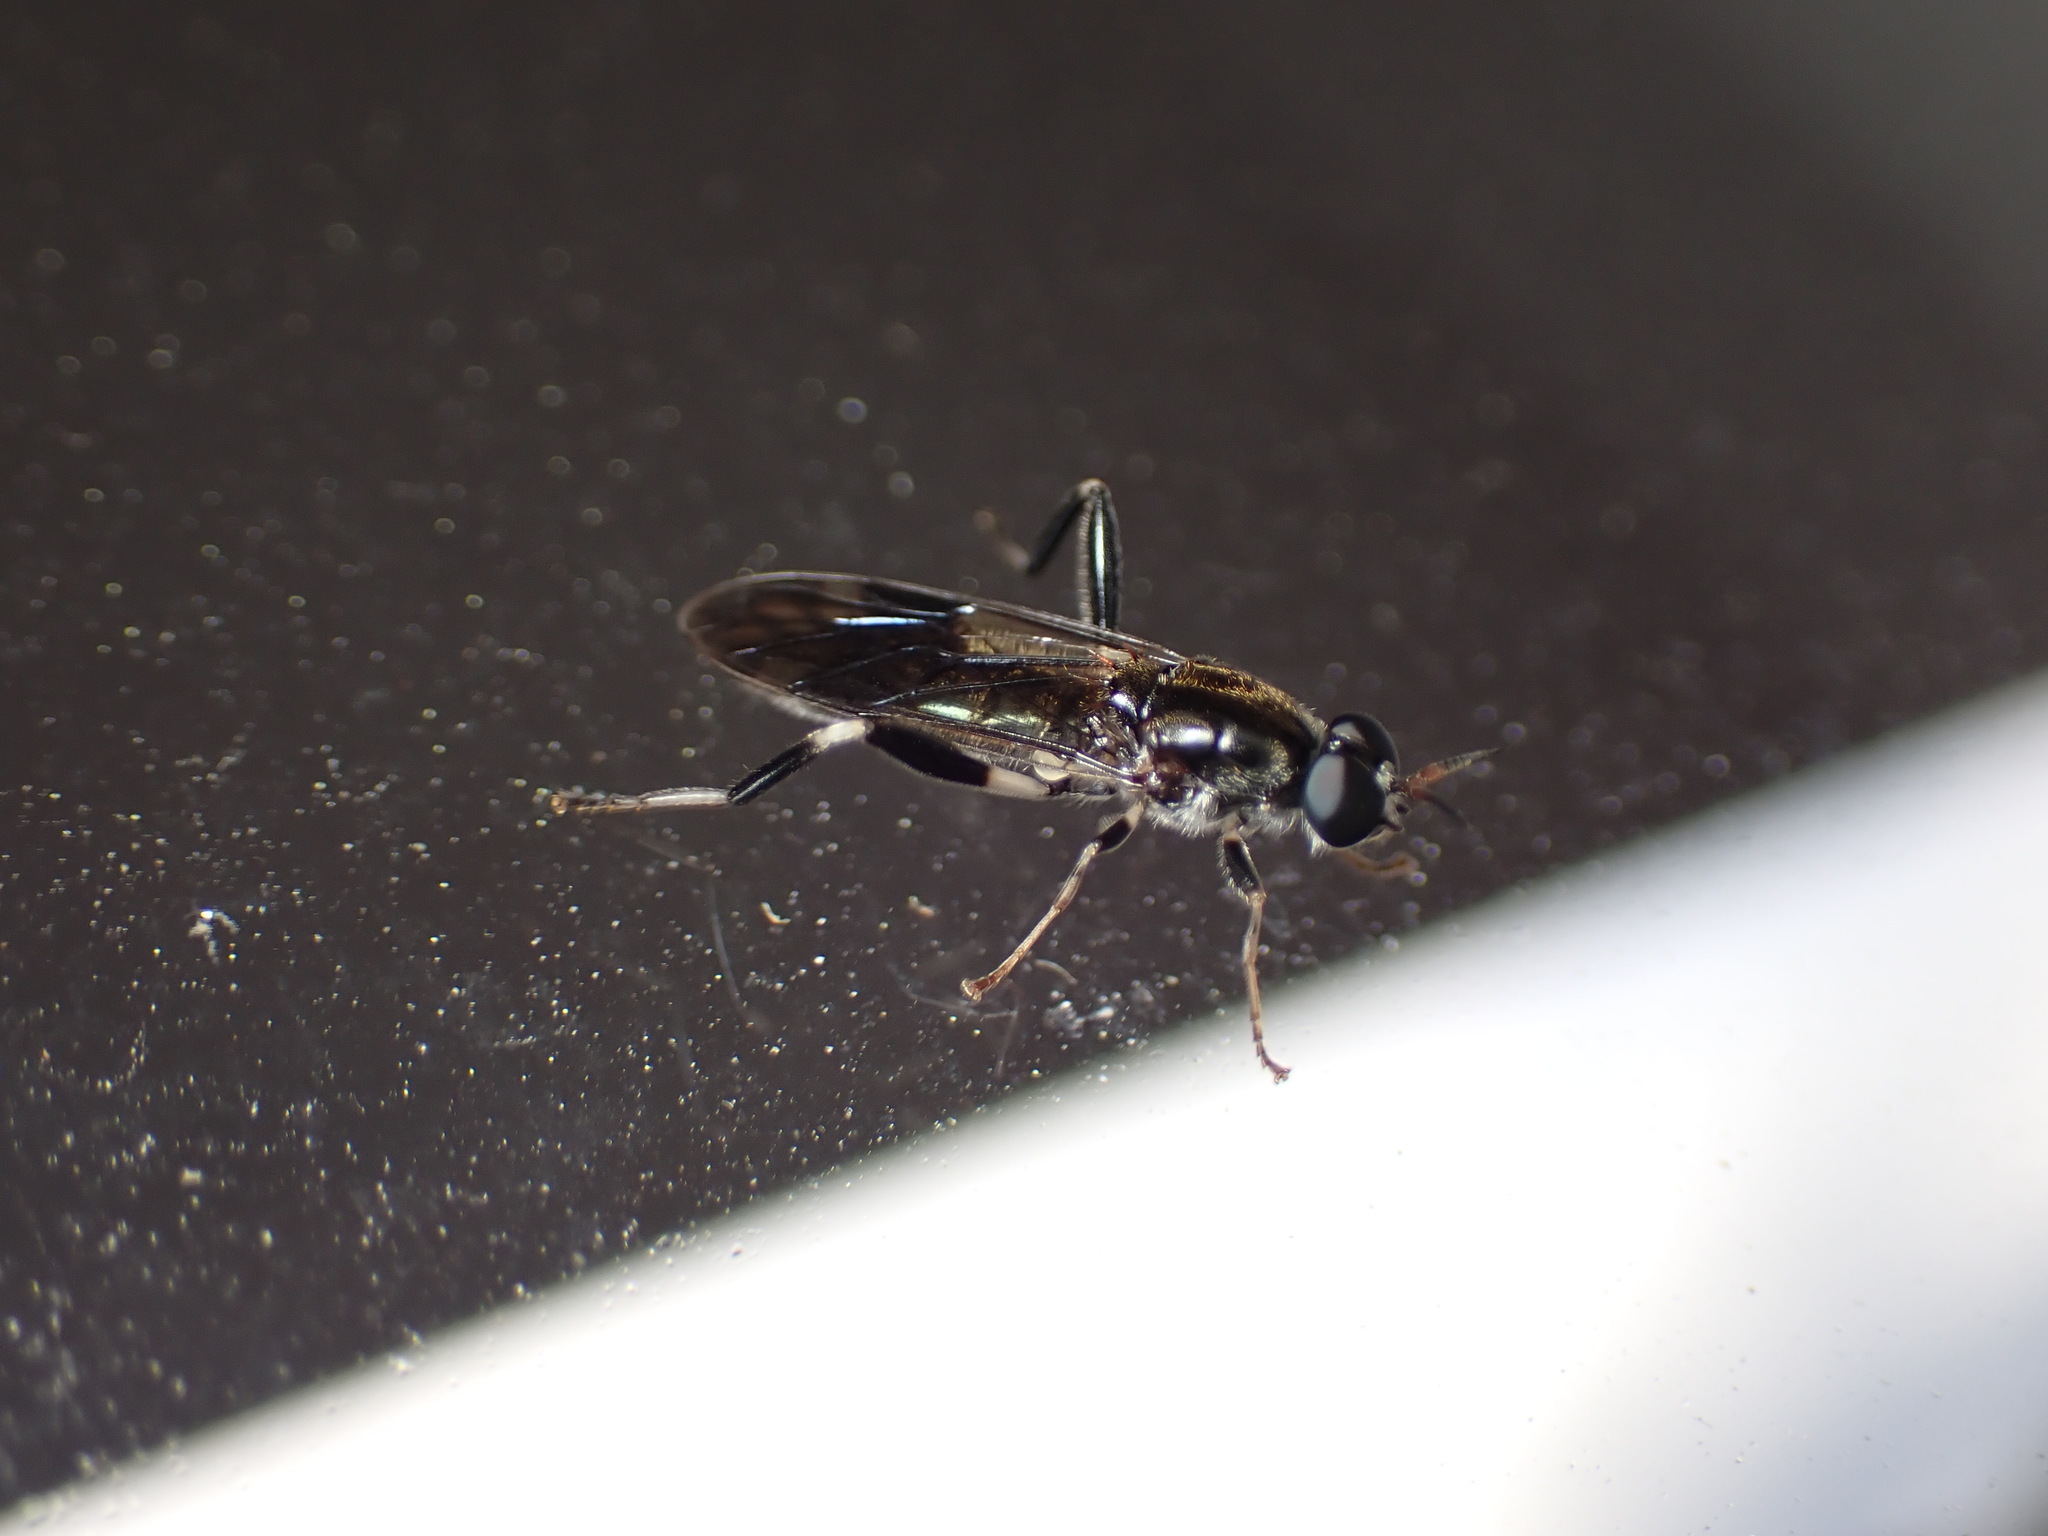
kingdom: Animalia
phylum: Arthropoda
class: Insecta
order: Diptera
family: Stratiomyidae
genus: Exaireta
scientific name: Exaireta spinigera
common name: Blue soldier fly
